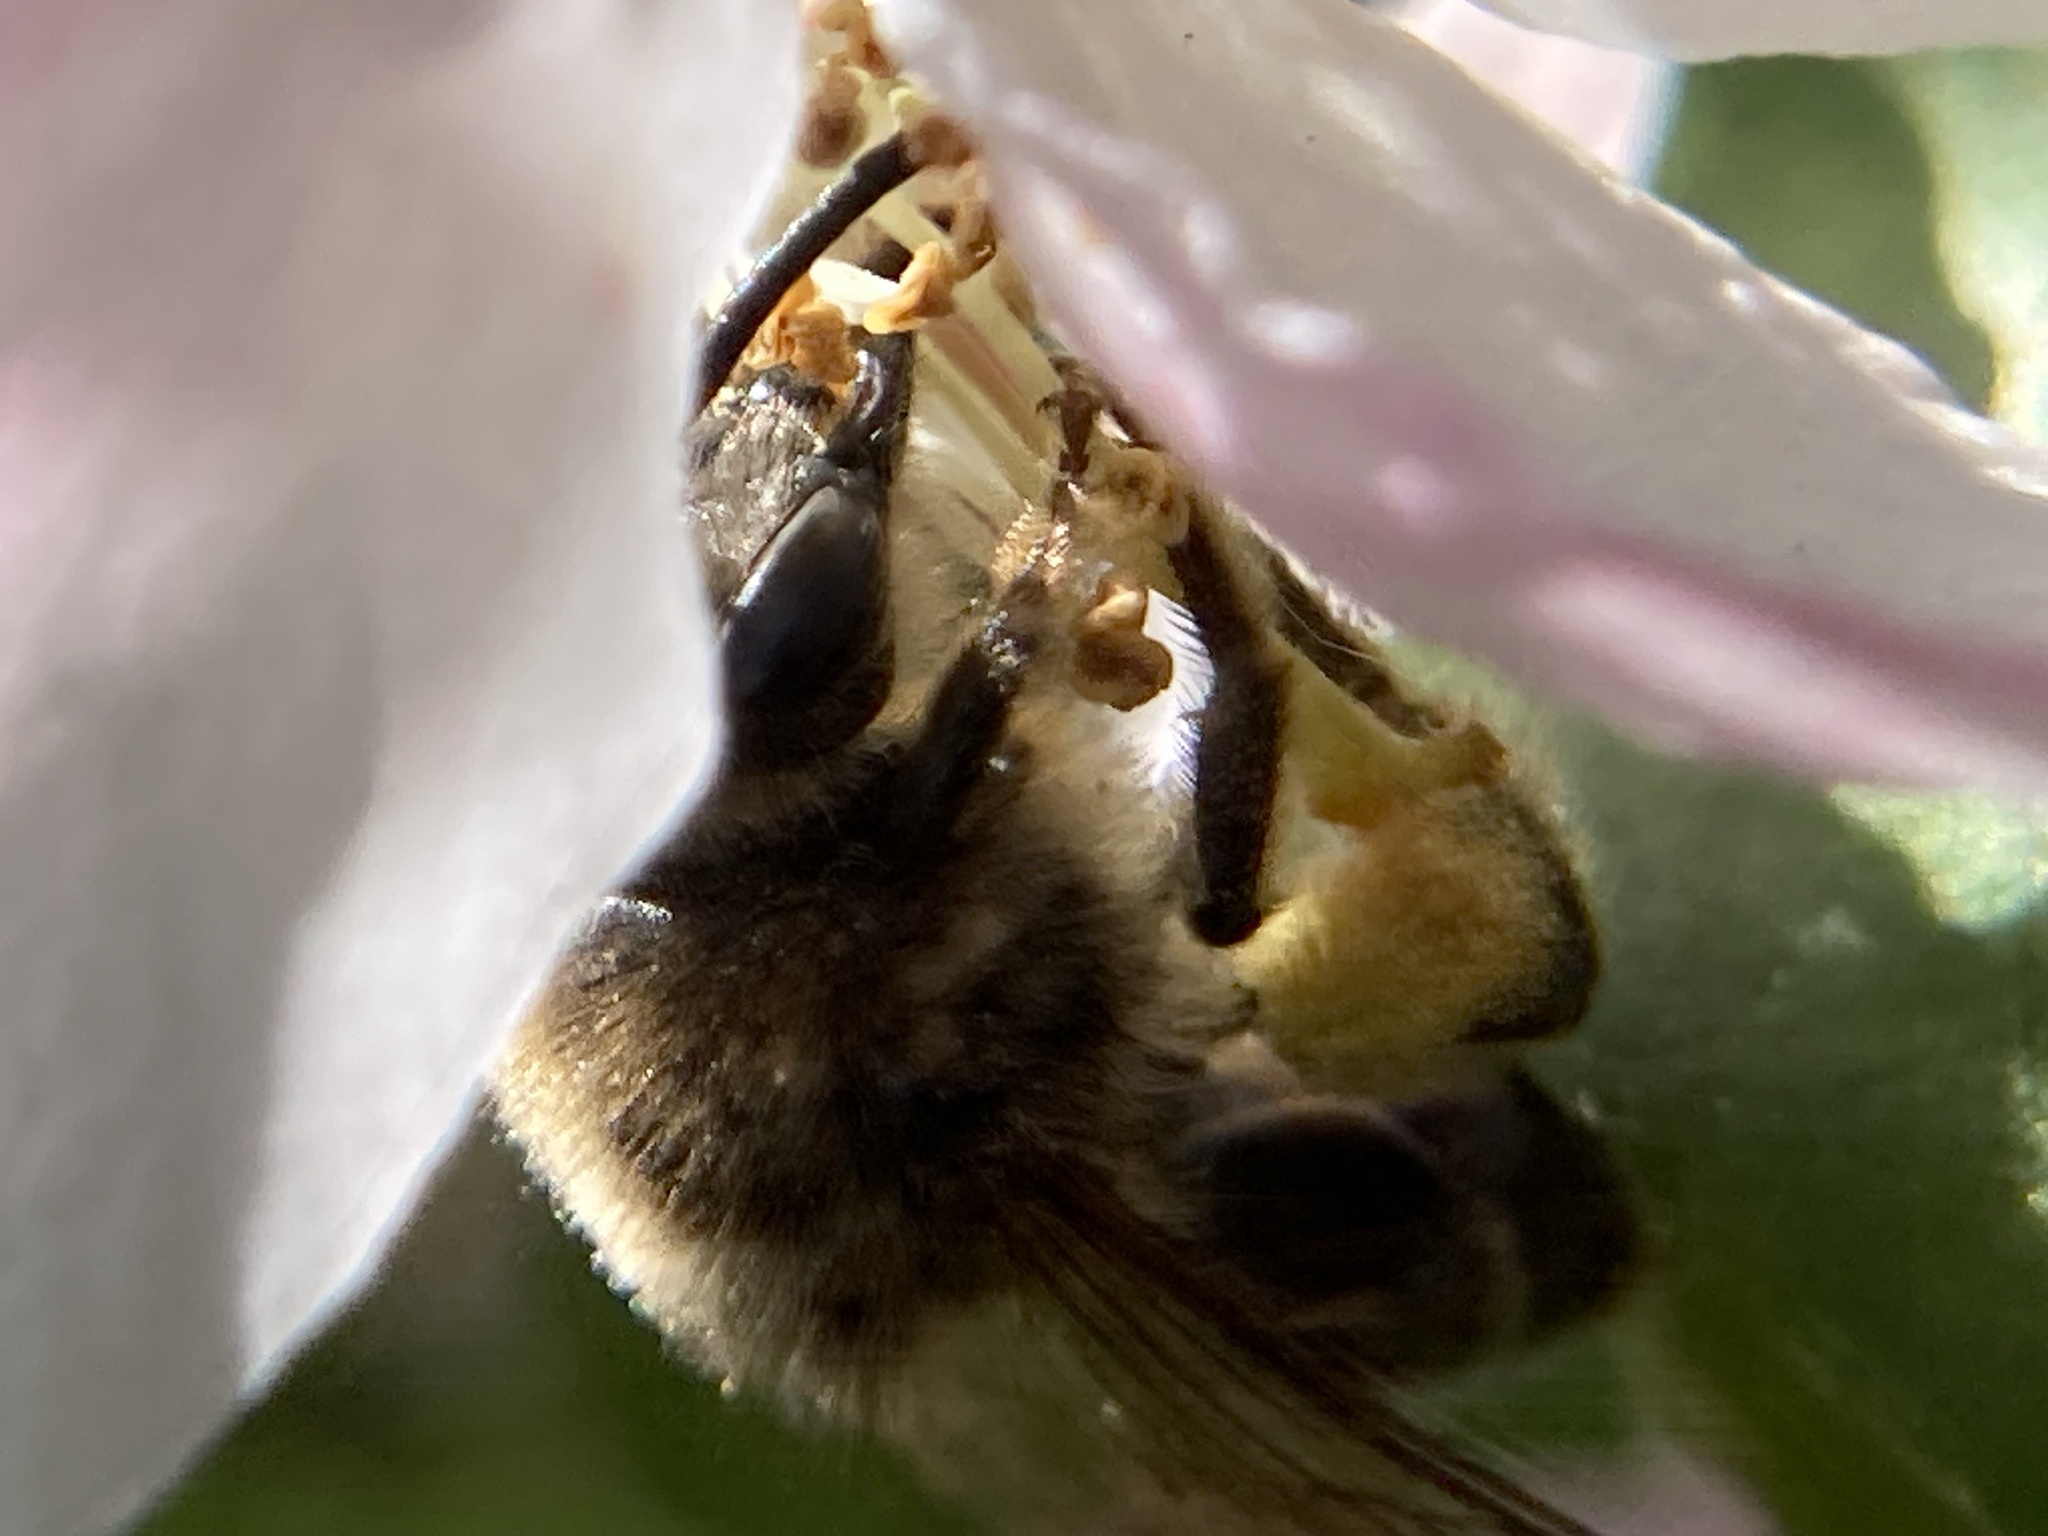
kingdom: Animalia
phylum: Arthropoda
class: Insecta
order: Hymenoptera
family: Colletidae
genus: Colletes
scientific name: Colletes inaequalis
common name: Unequal cellophane bee
